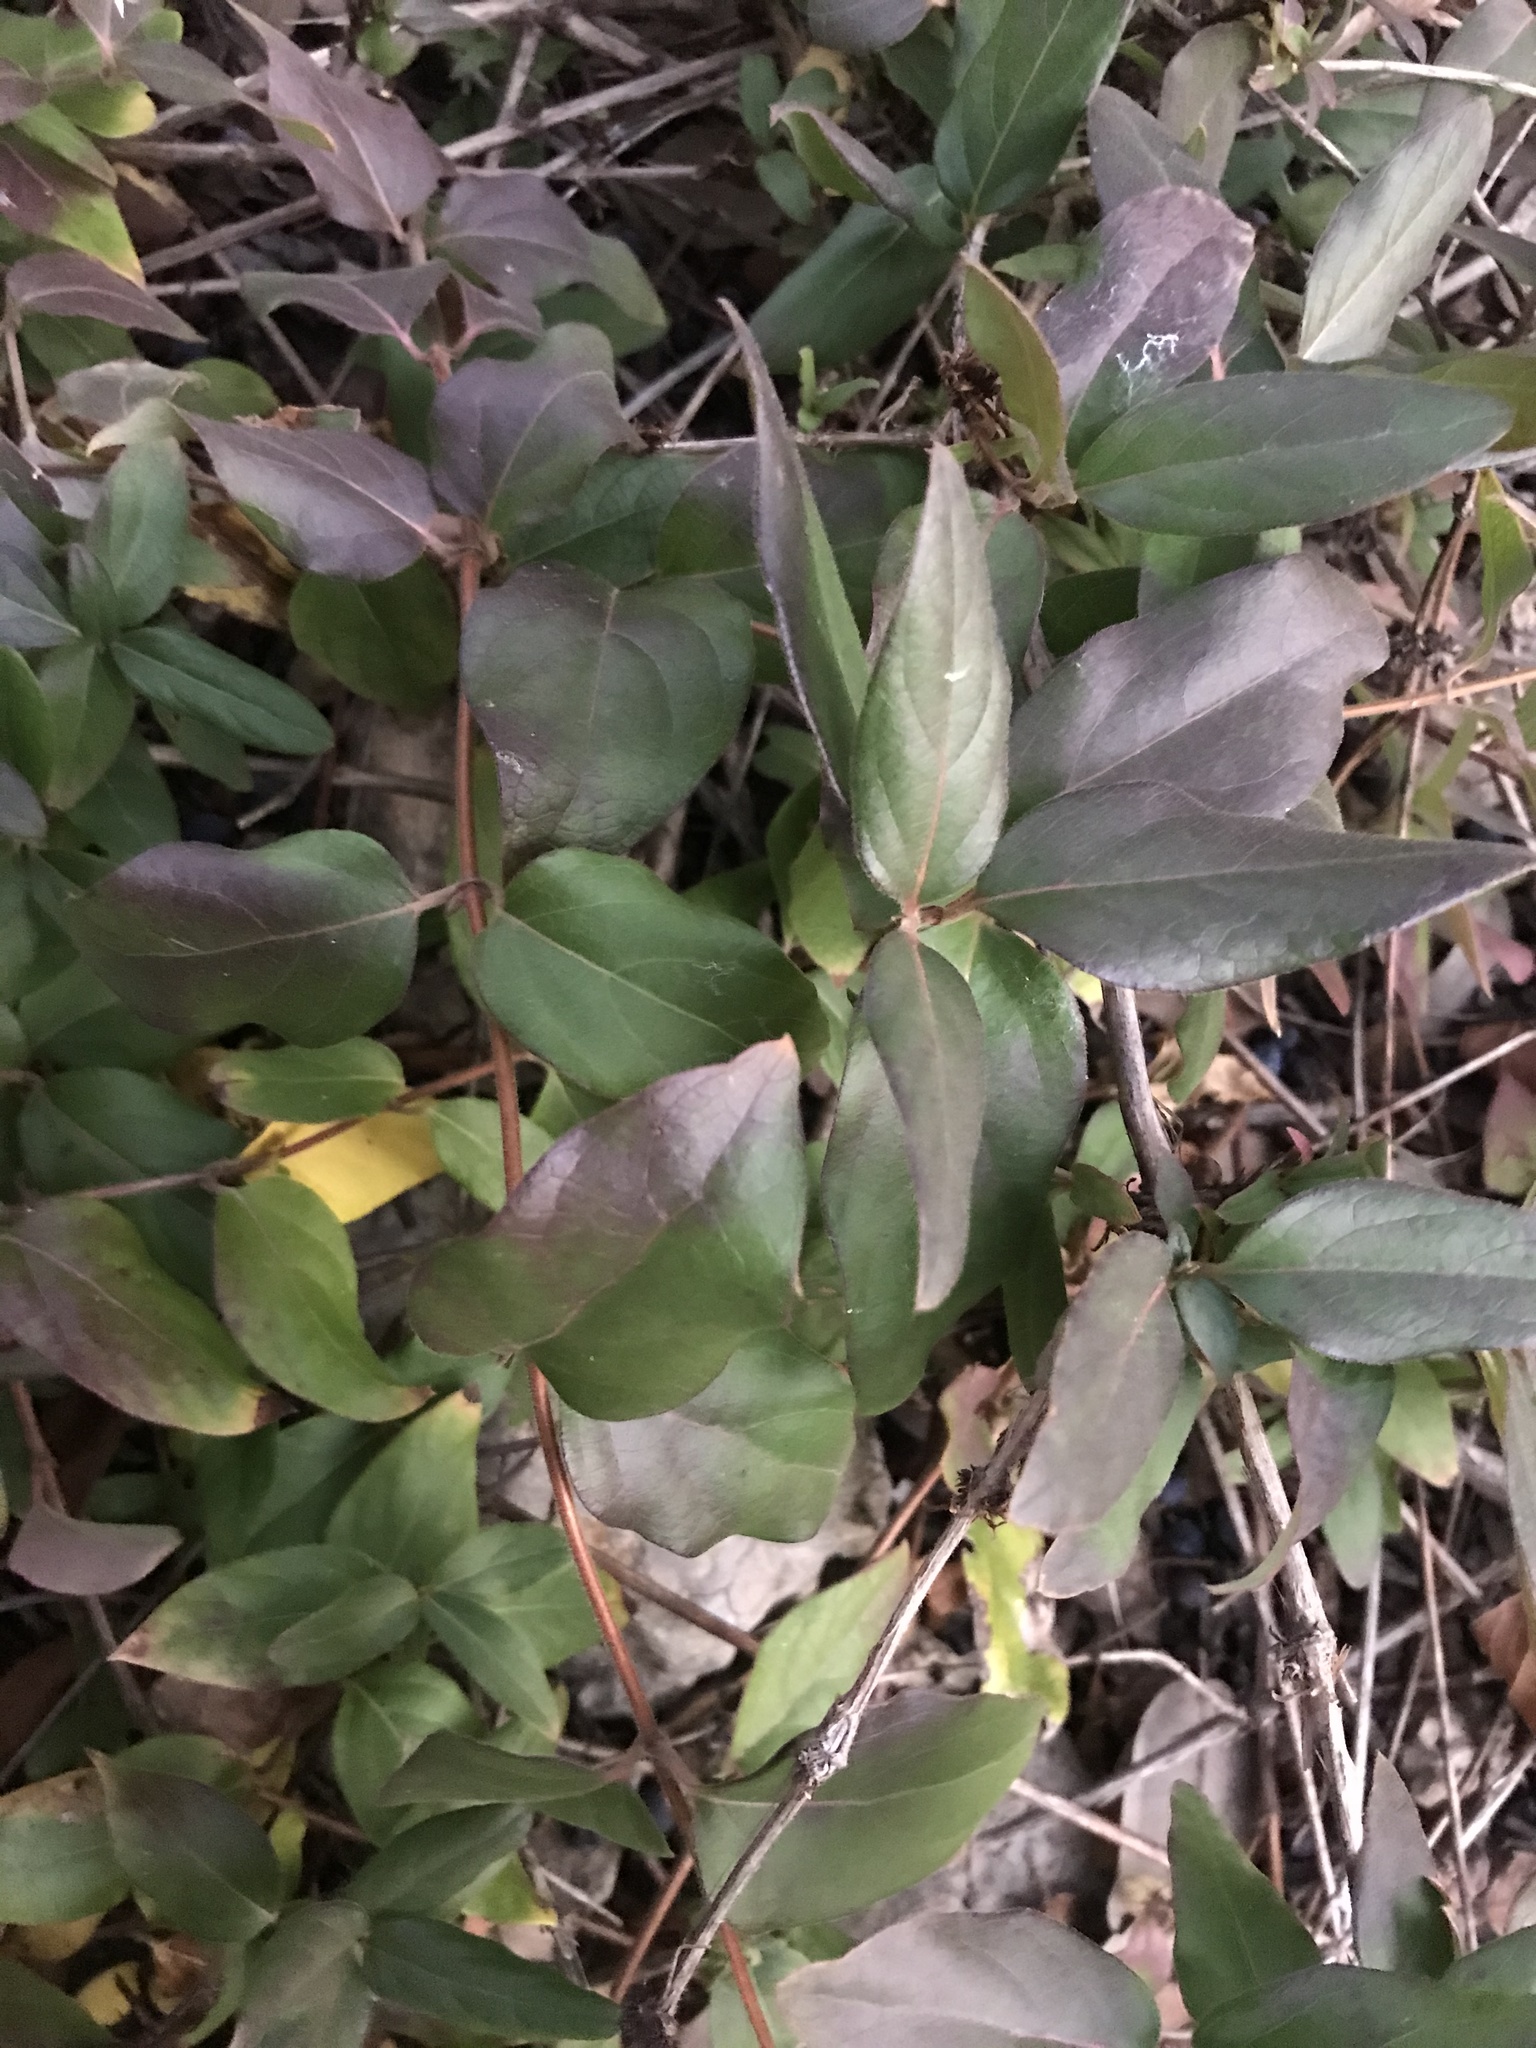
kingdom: Plantae
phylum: Tracheophyta
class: Magnoliopsida
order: Dipsacales
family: Caprifoliaceae
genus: Lonicera
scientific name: Lonicera japonica
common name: Japanese honeysuckle
